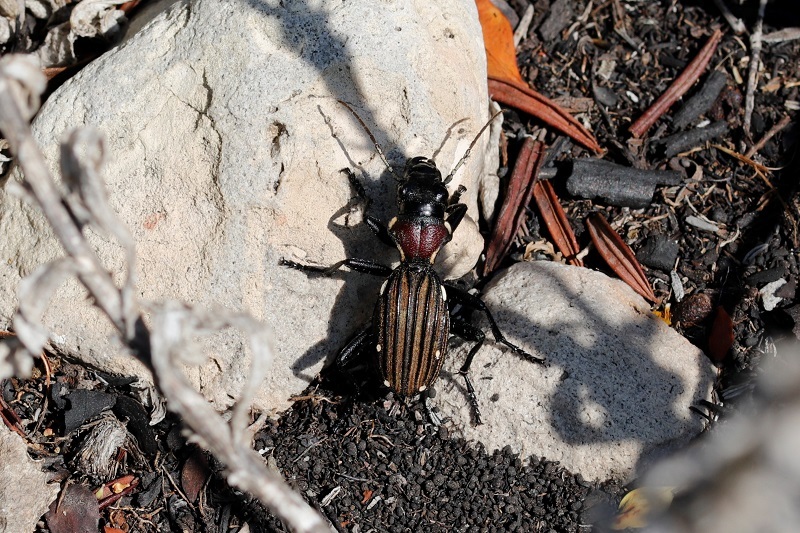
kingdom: Animalia
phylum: Arthropoda
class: Insecta
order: Coleoptera
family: Carabidae
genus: Anthia
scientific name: Anthia decemguttata
